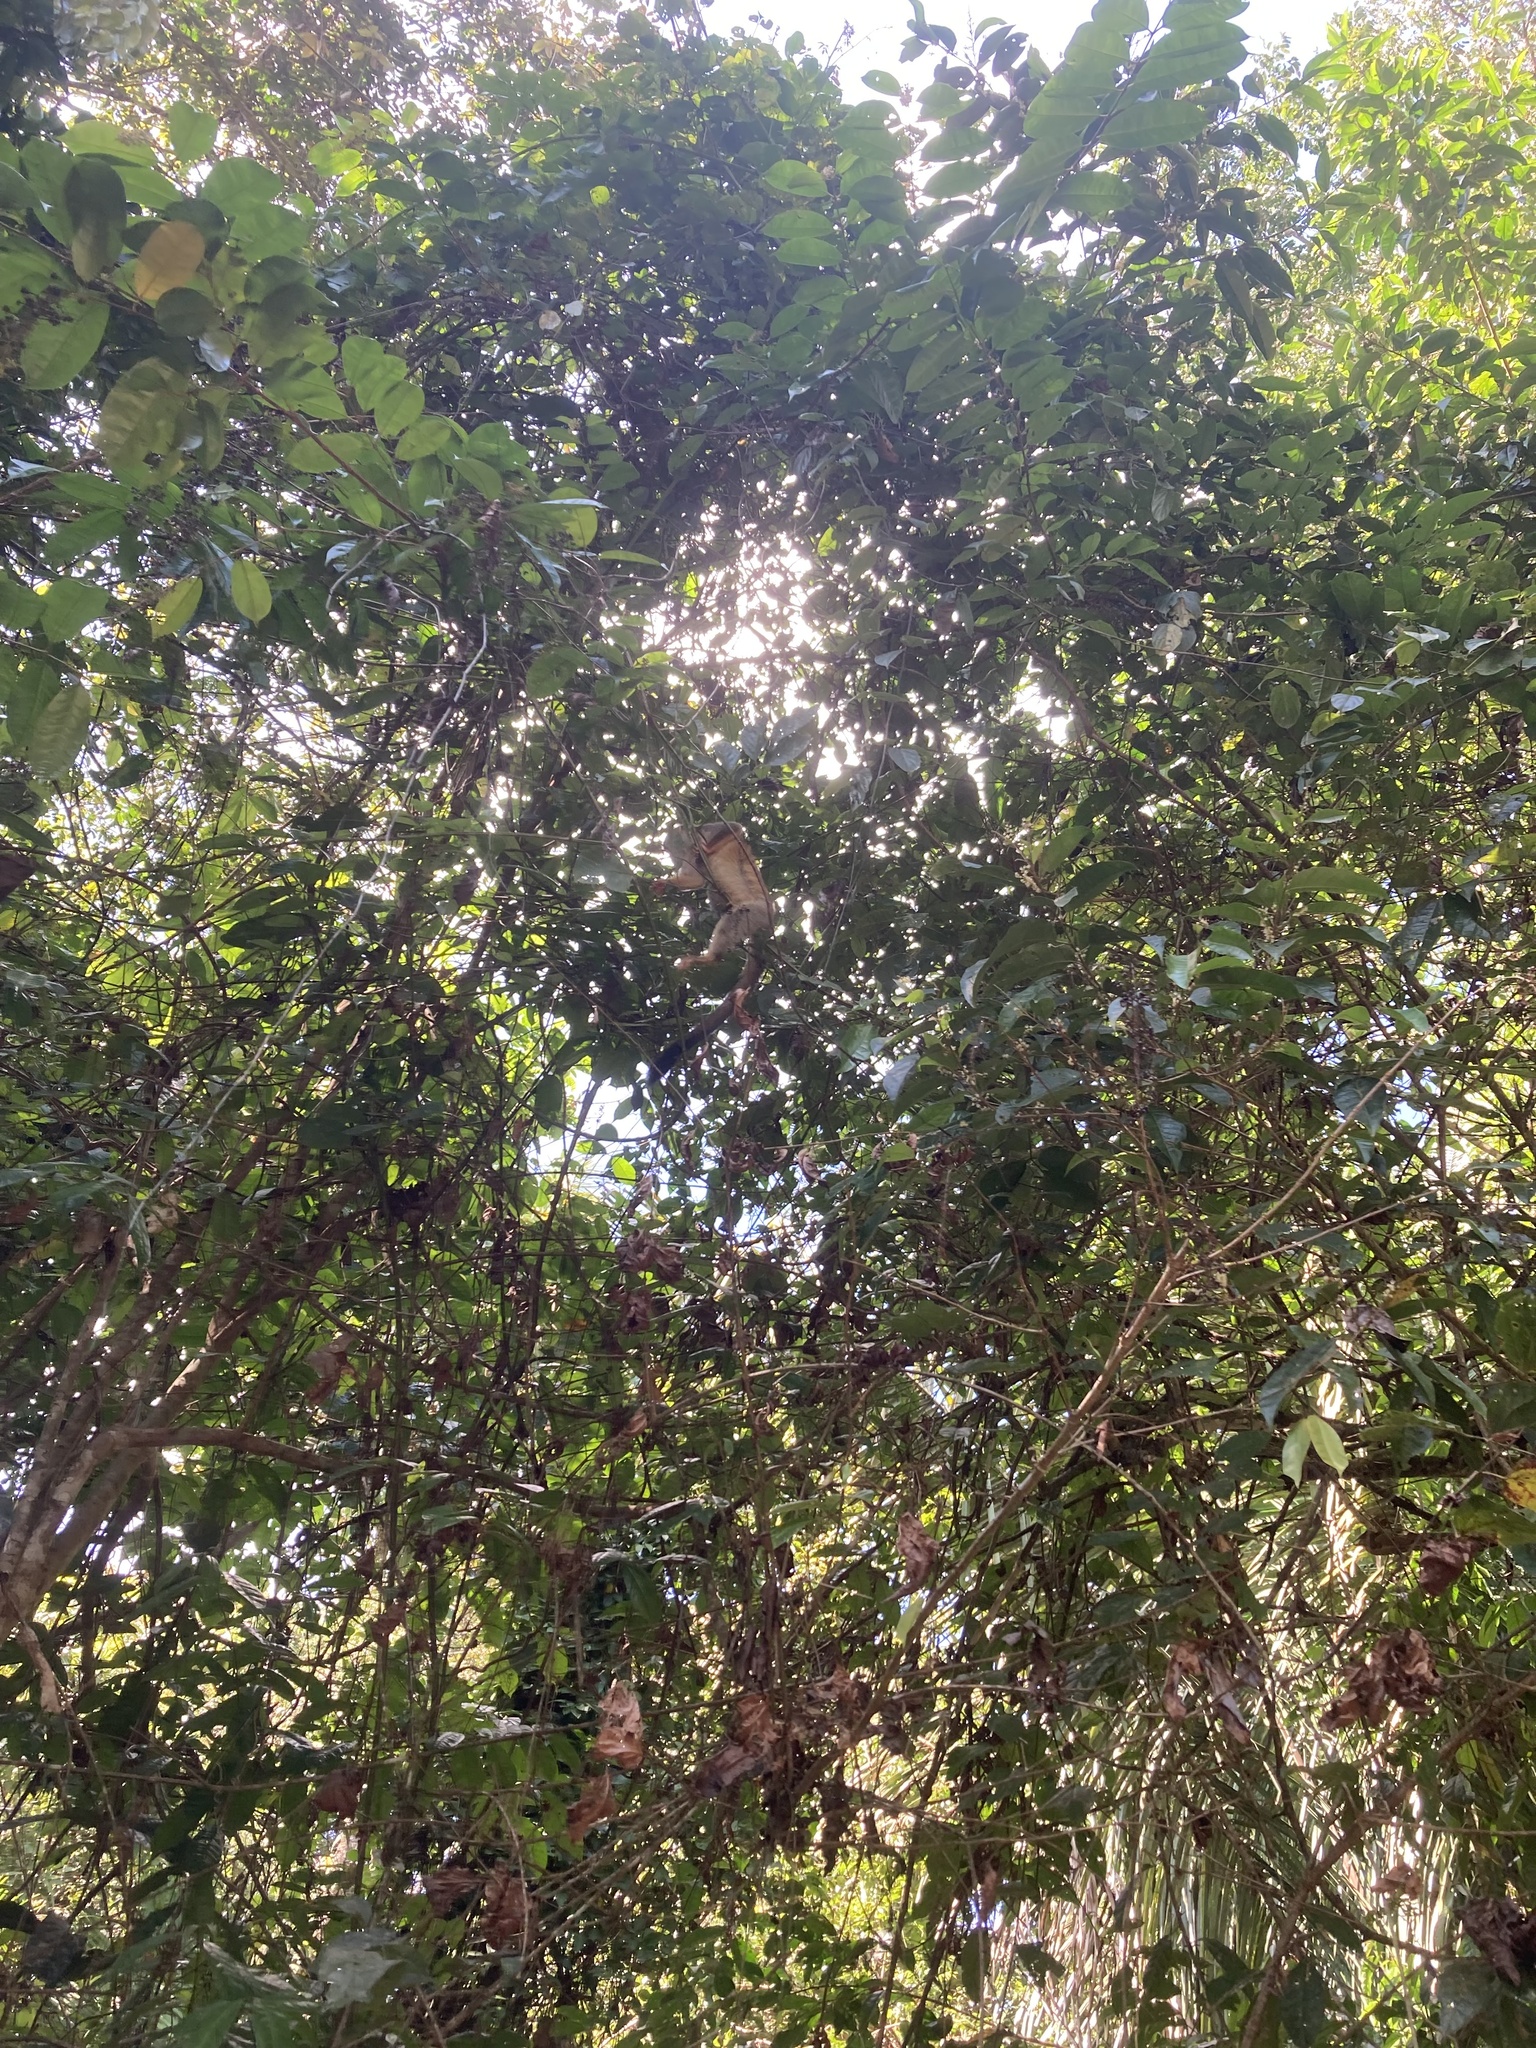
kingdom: Animalia
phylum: Chordata
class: Mammalia
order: Primates
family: Cebidae
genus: Saimiri
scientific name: Saimiri oerstedii
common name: Central american squirrel monkey
